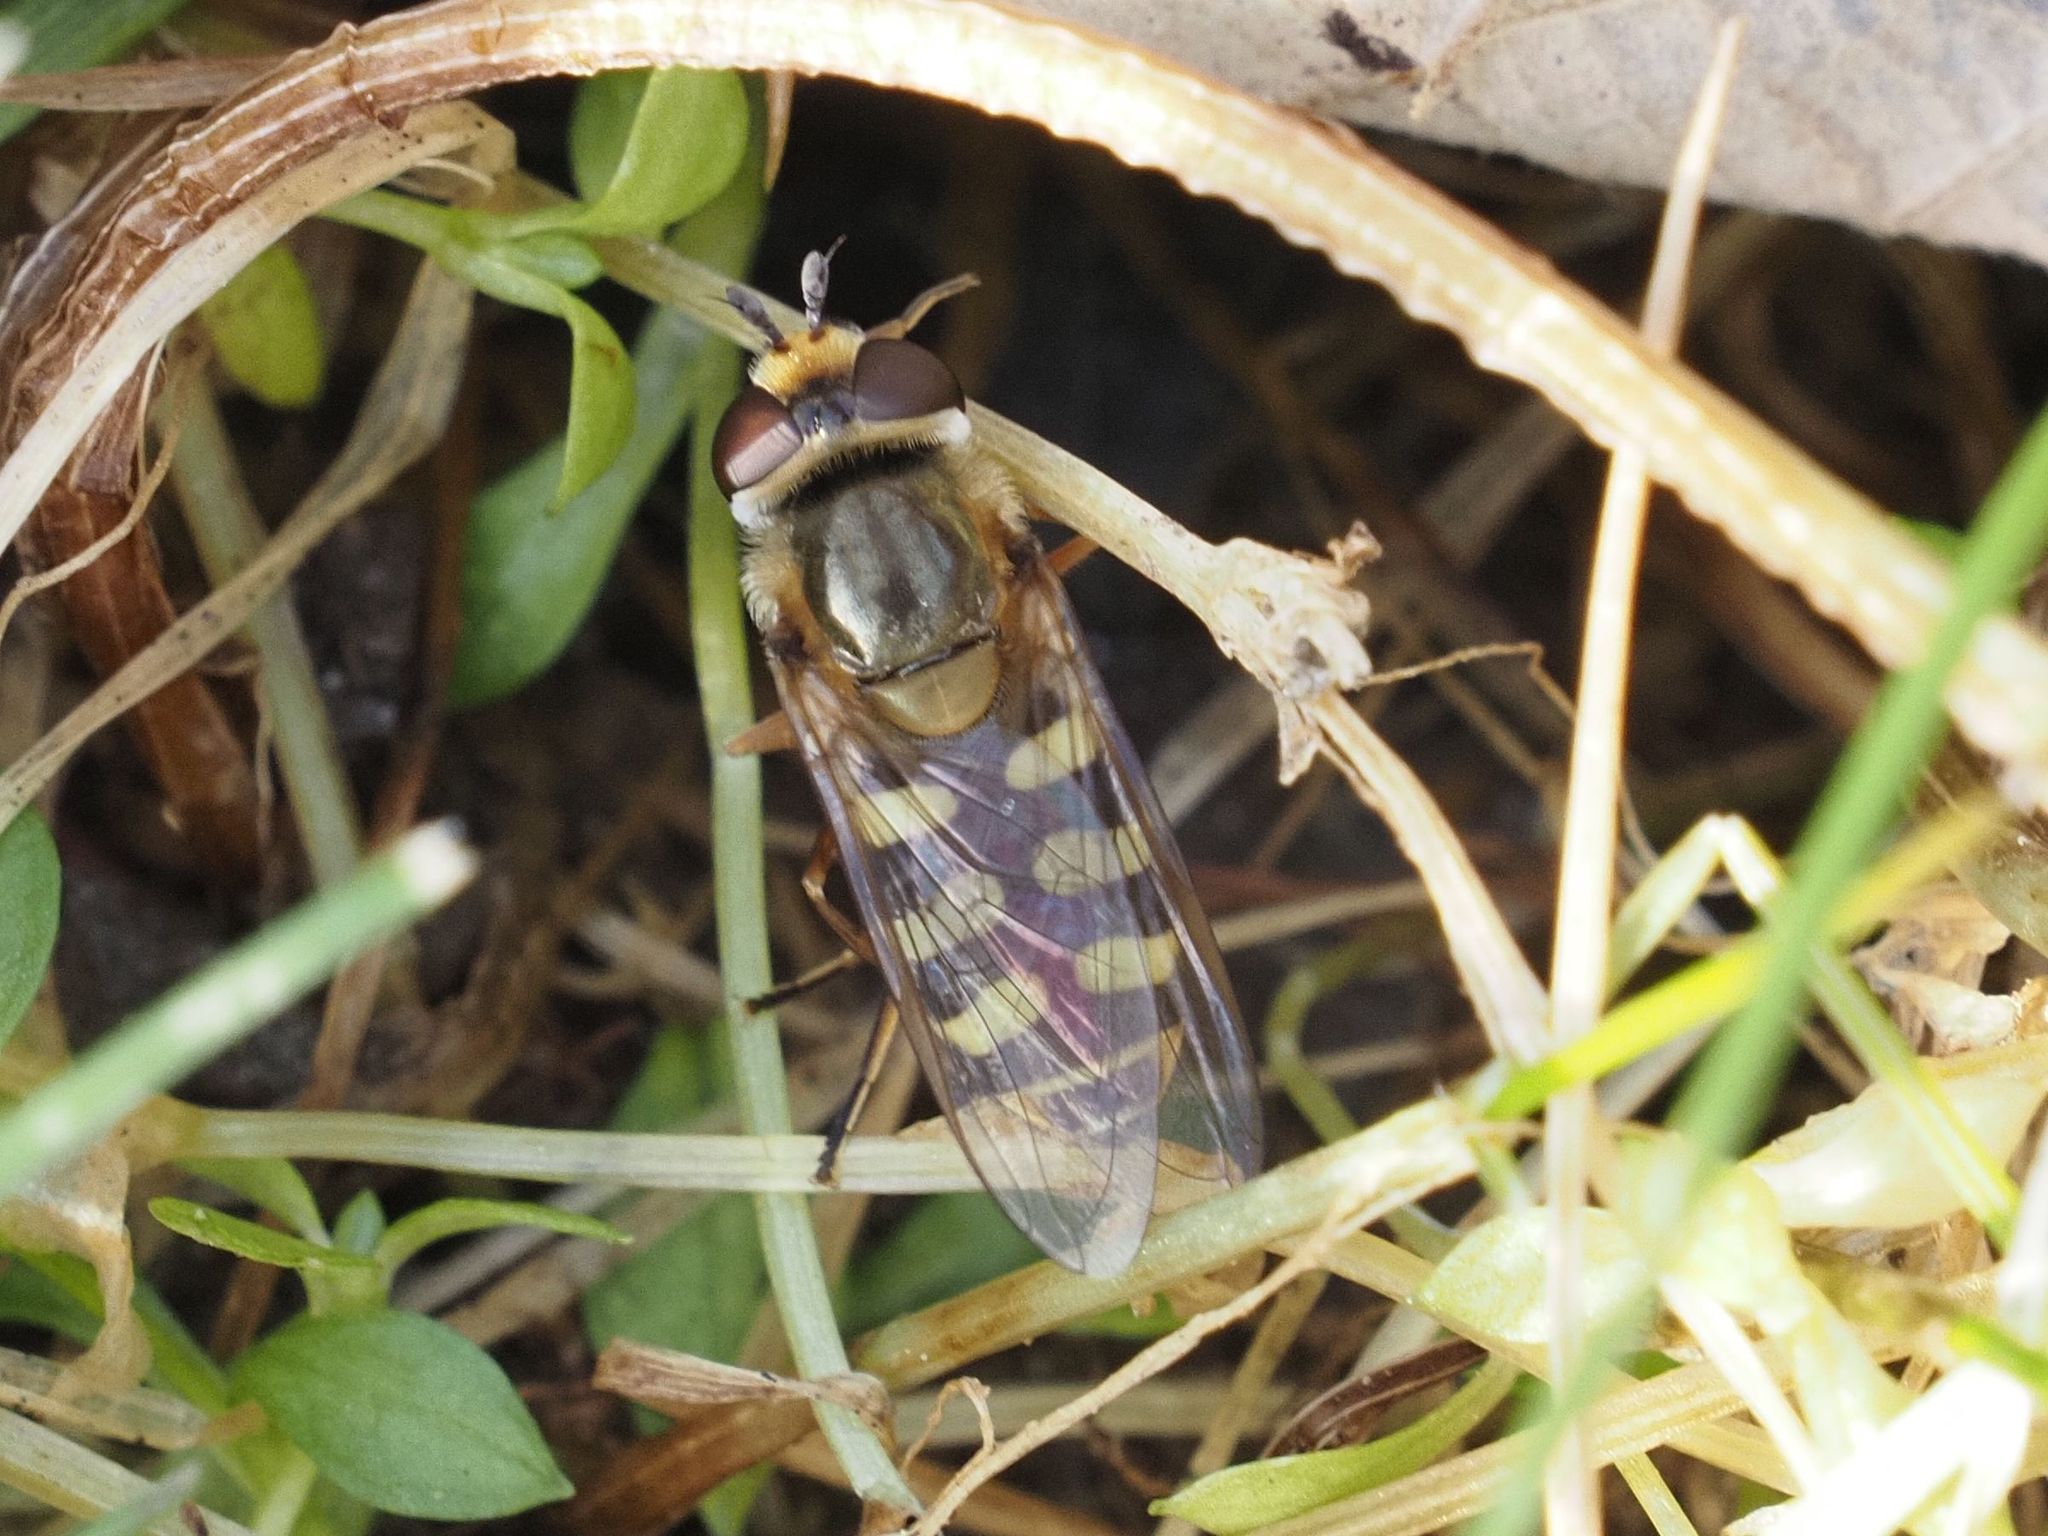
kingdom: Animalia
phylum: Arthropoda
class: Insecta
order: Diptera
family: Syrphidae
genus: Eupeodes
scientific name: Eupeodes corollae
